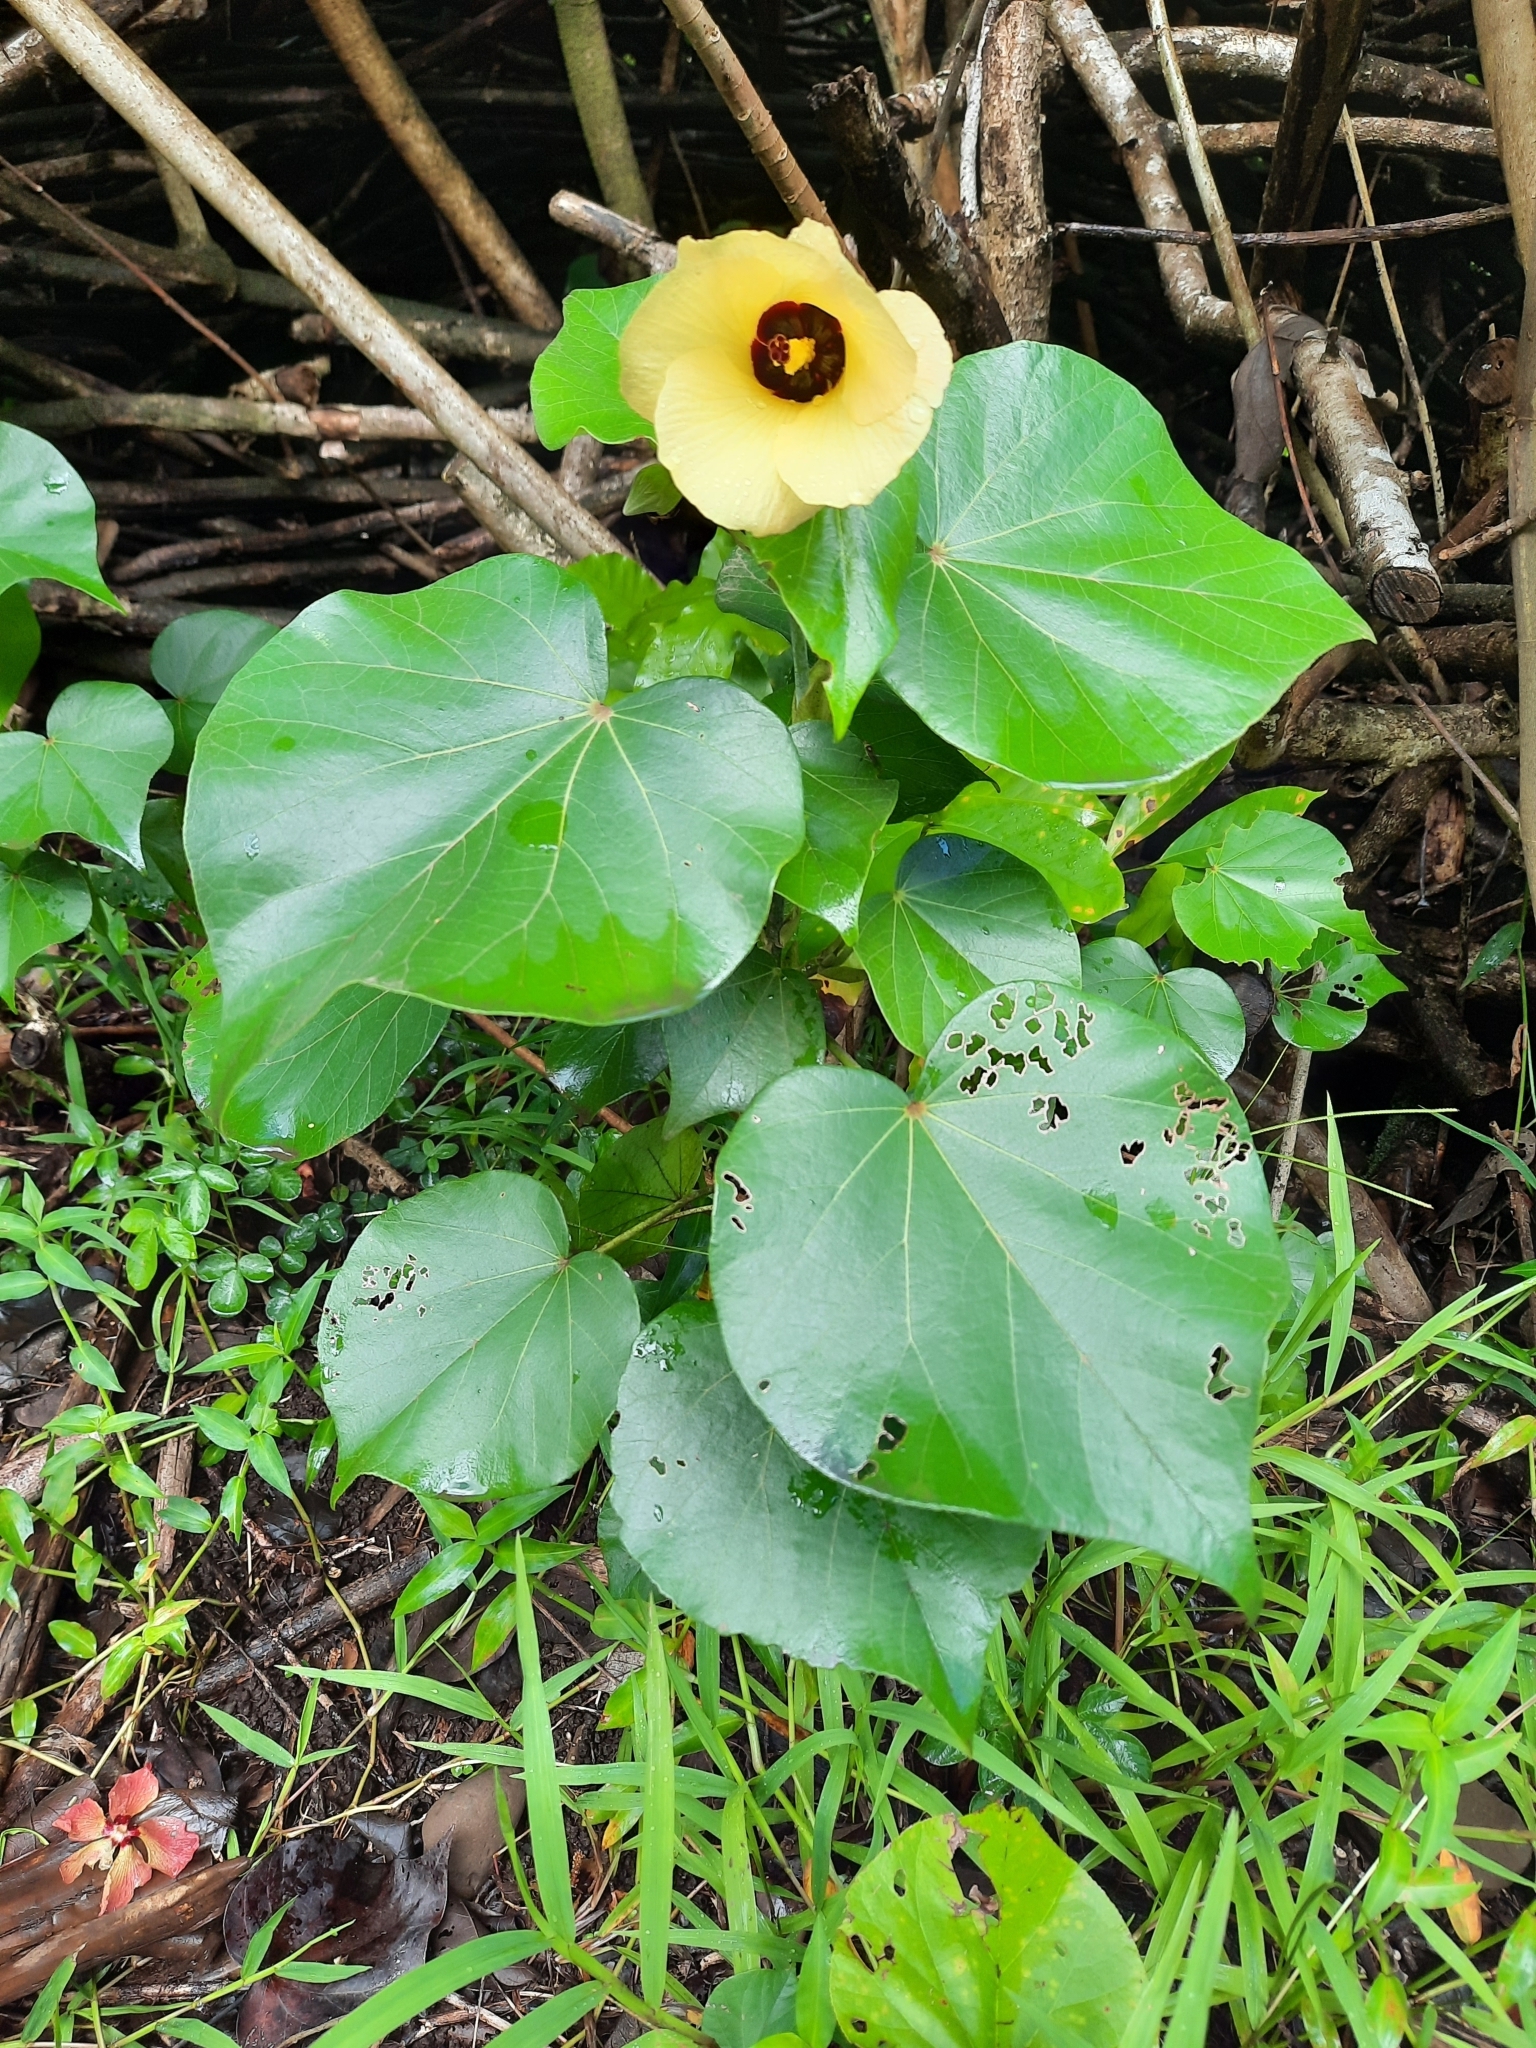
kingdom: Plantae
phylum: Tracheophyta
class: Magnoliopsida
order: Malvales
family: Malvaceae
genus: Talipariti
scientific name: Talipariti tiliaceum
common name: Sea hibiscus
